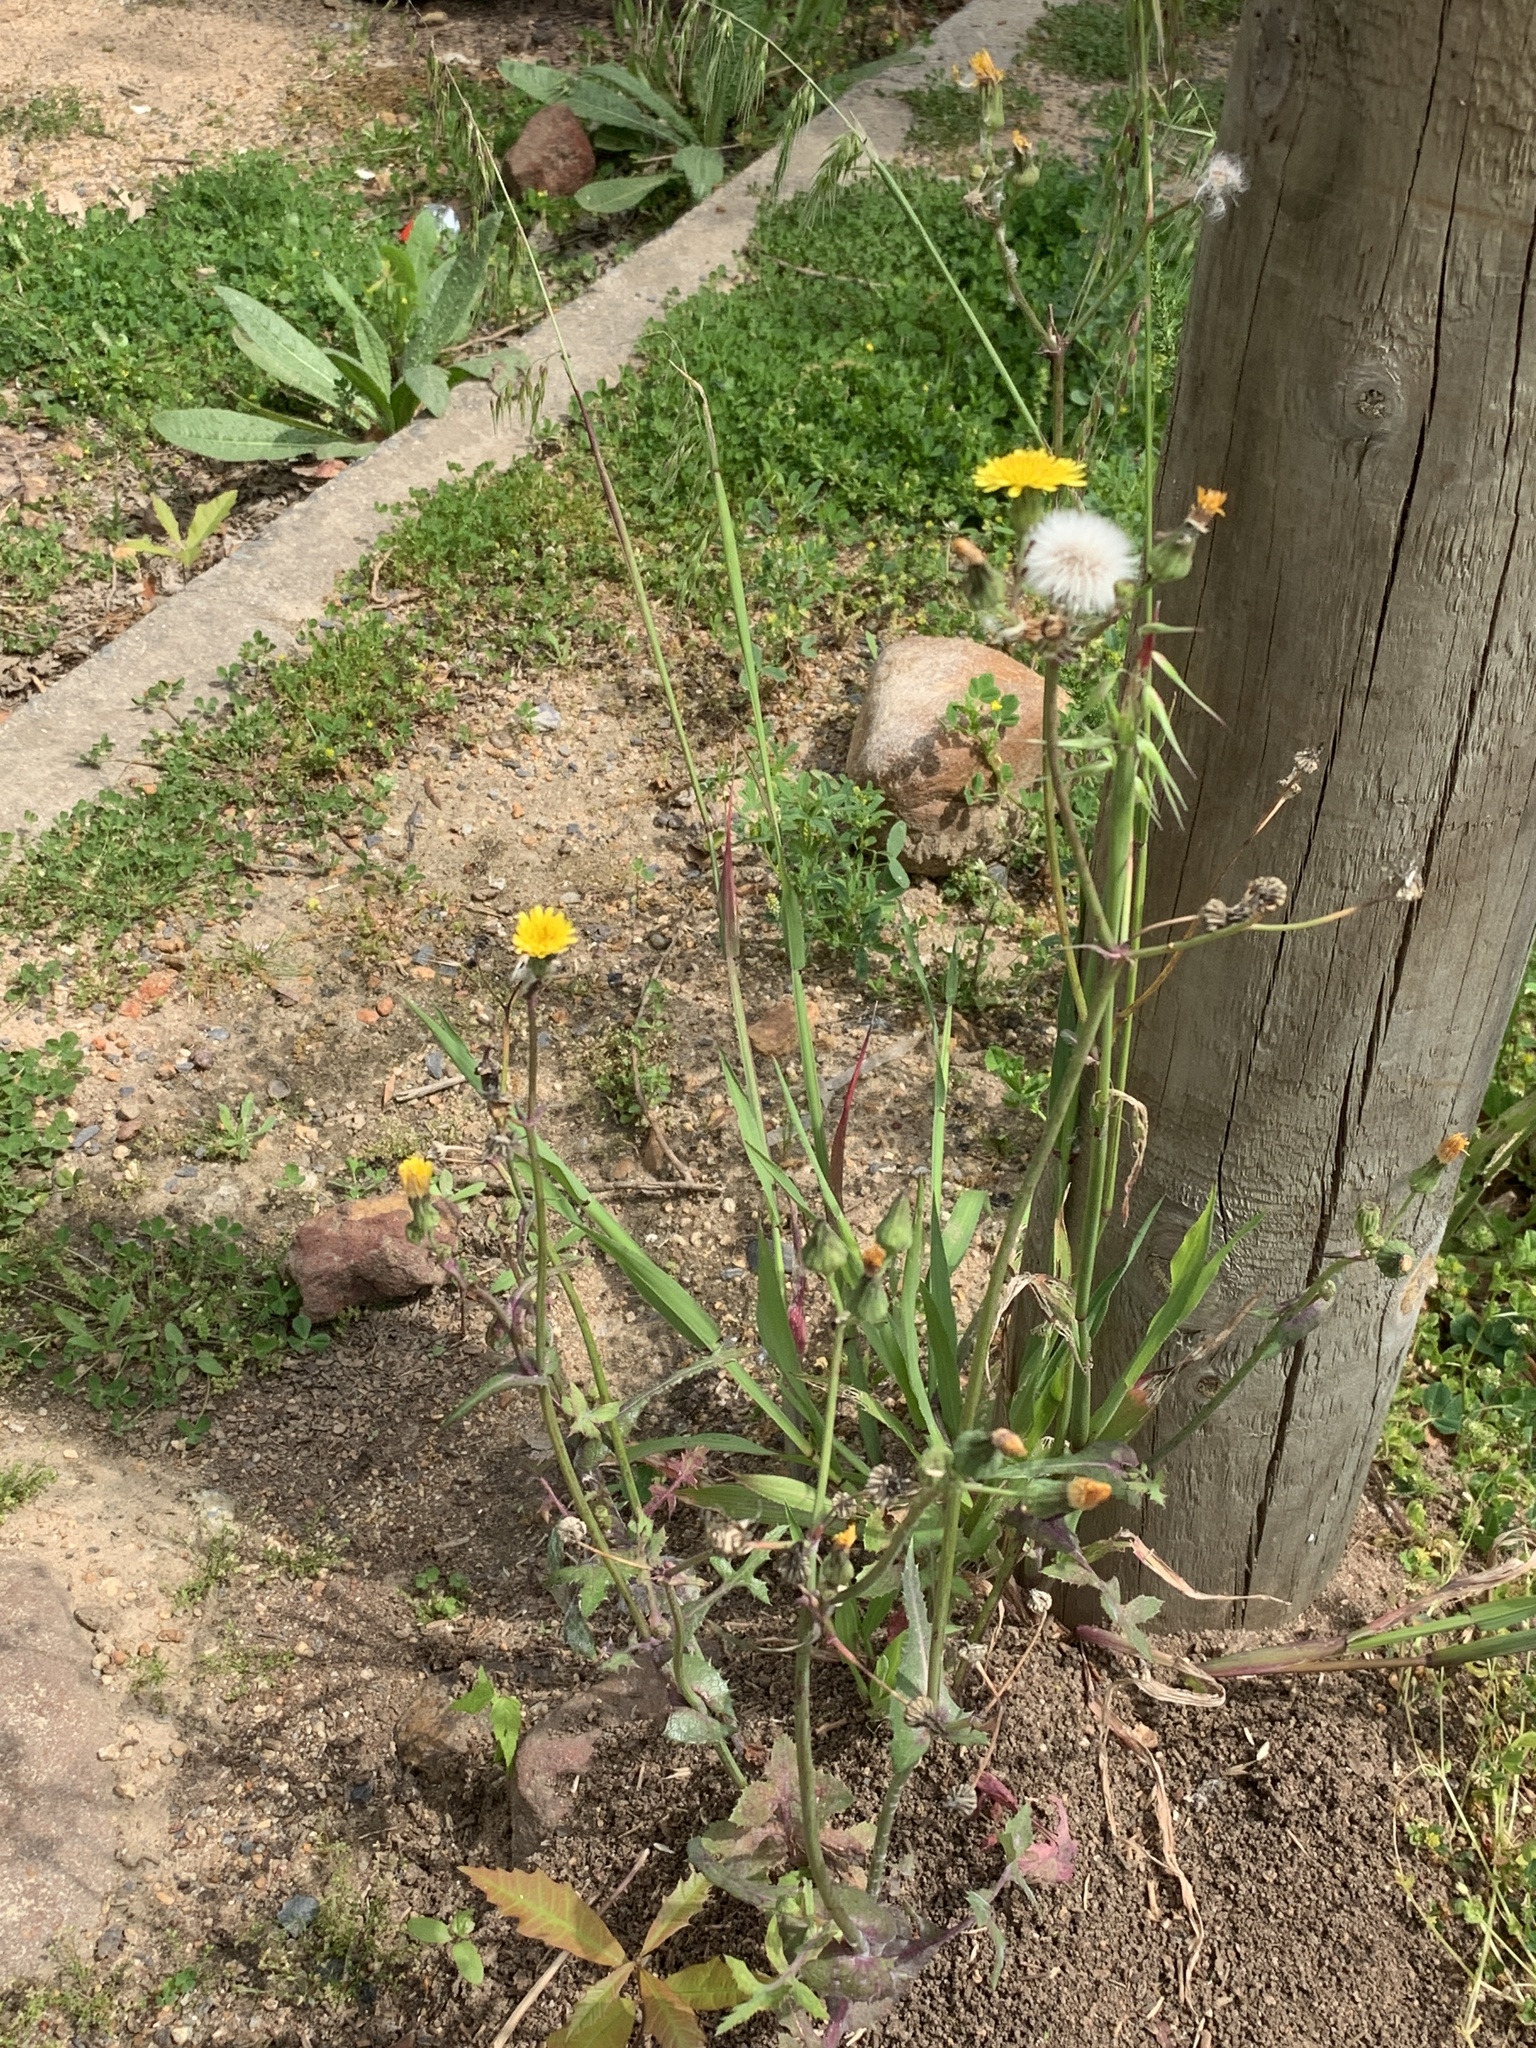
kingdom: Plantae
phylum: Tracheophyta
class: Magnoliopsida
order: Asterales
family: Asteraceae
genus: Sonchus
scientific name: Sonchus oleraceus
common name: Common sowthistle
